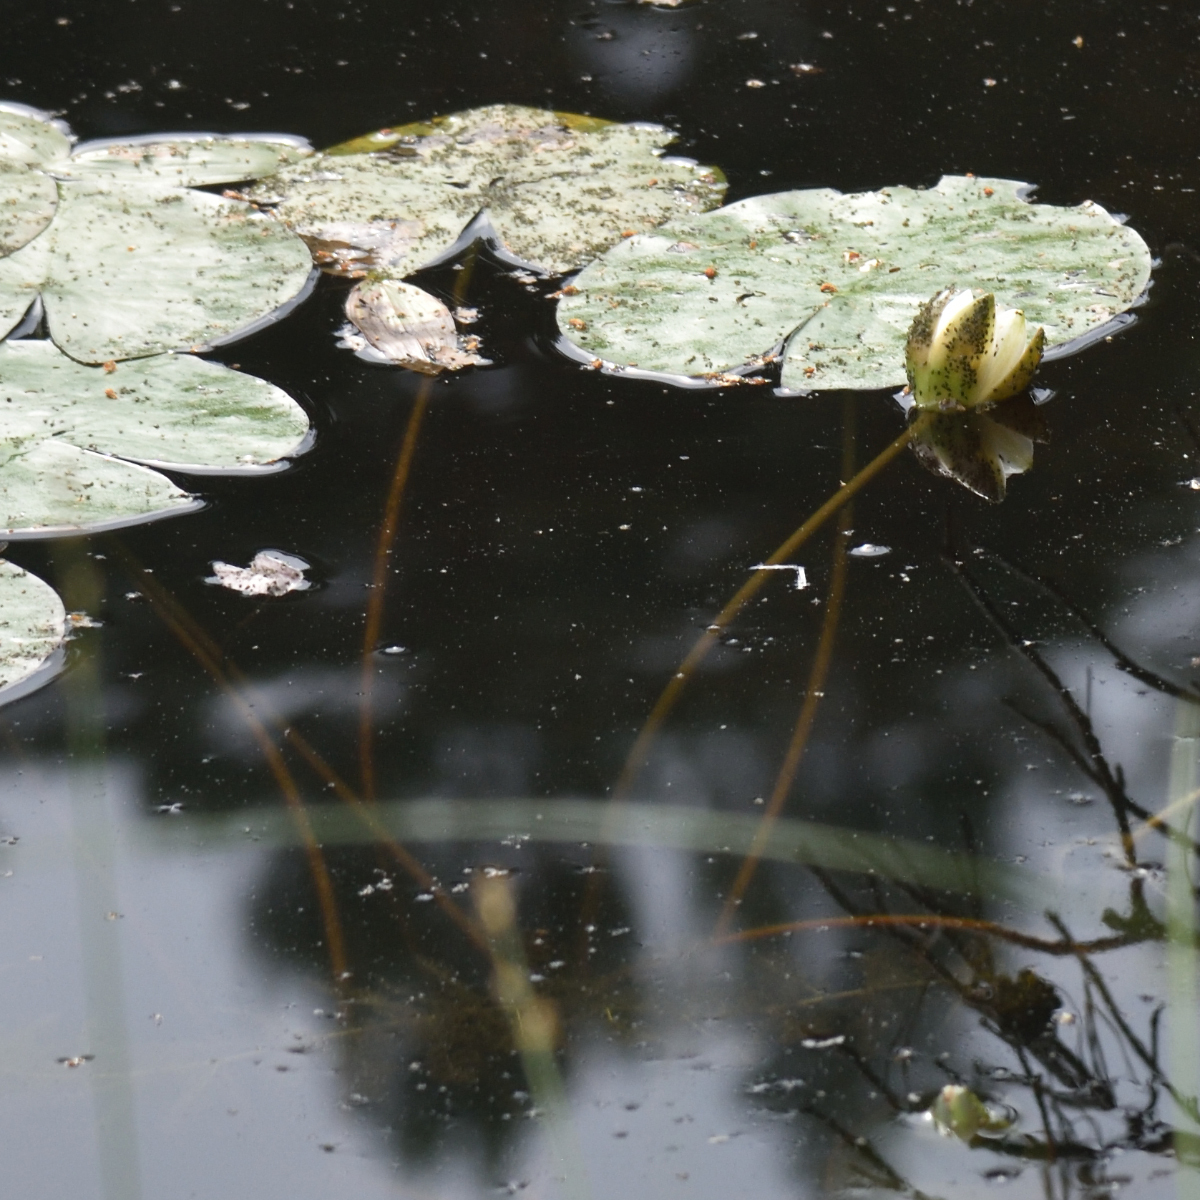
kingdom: Plantae
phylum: Tracheophyta
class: Magnoliopsida
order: Nymphaeales
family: Nymphaeaceae
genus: Nymphaea
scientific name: Nymphaea candida
